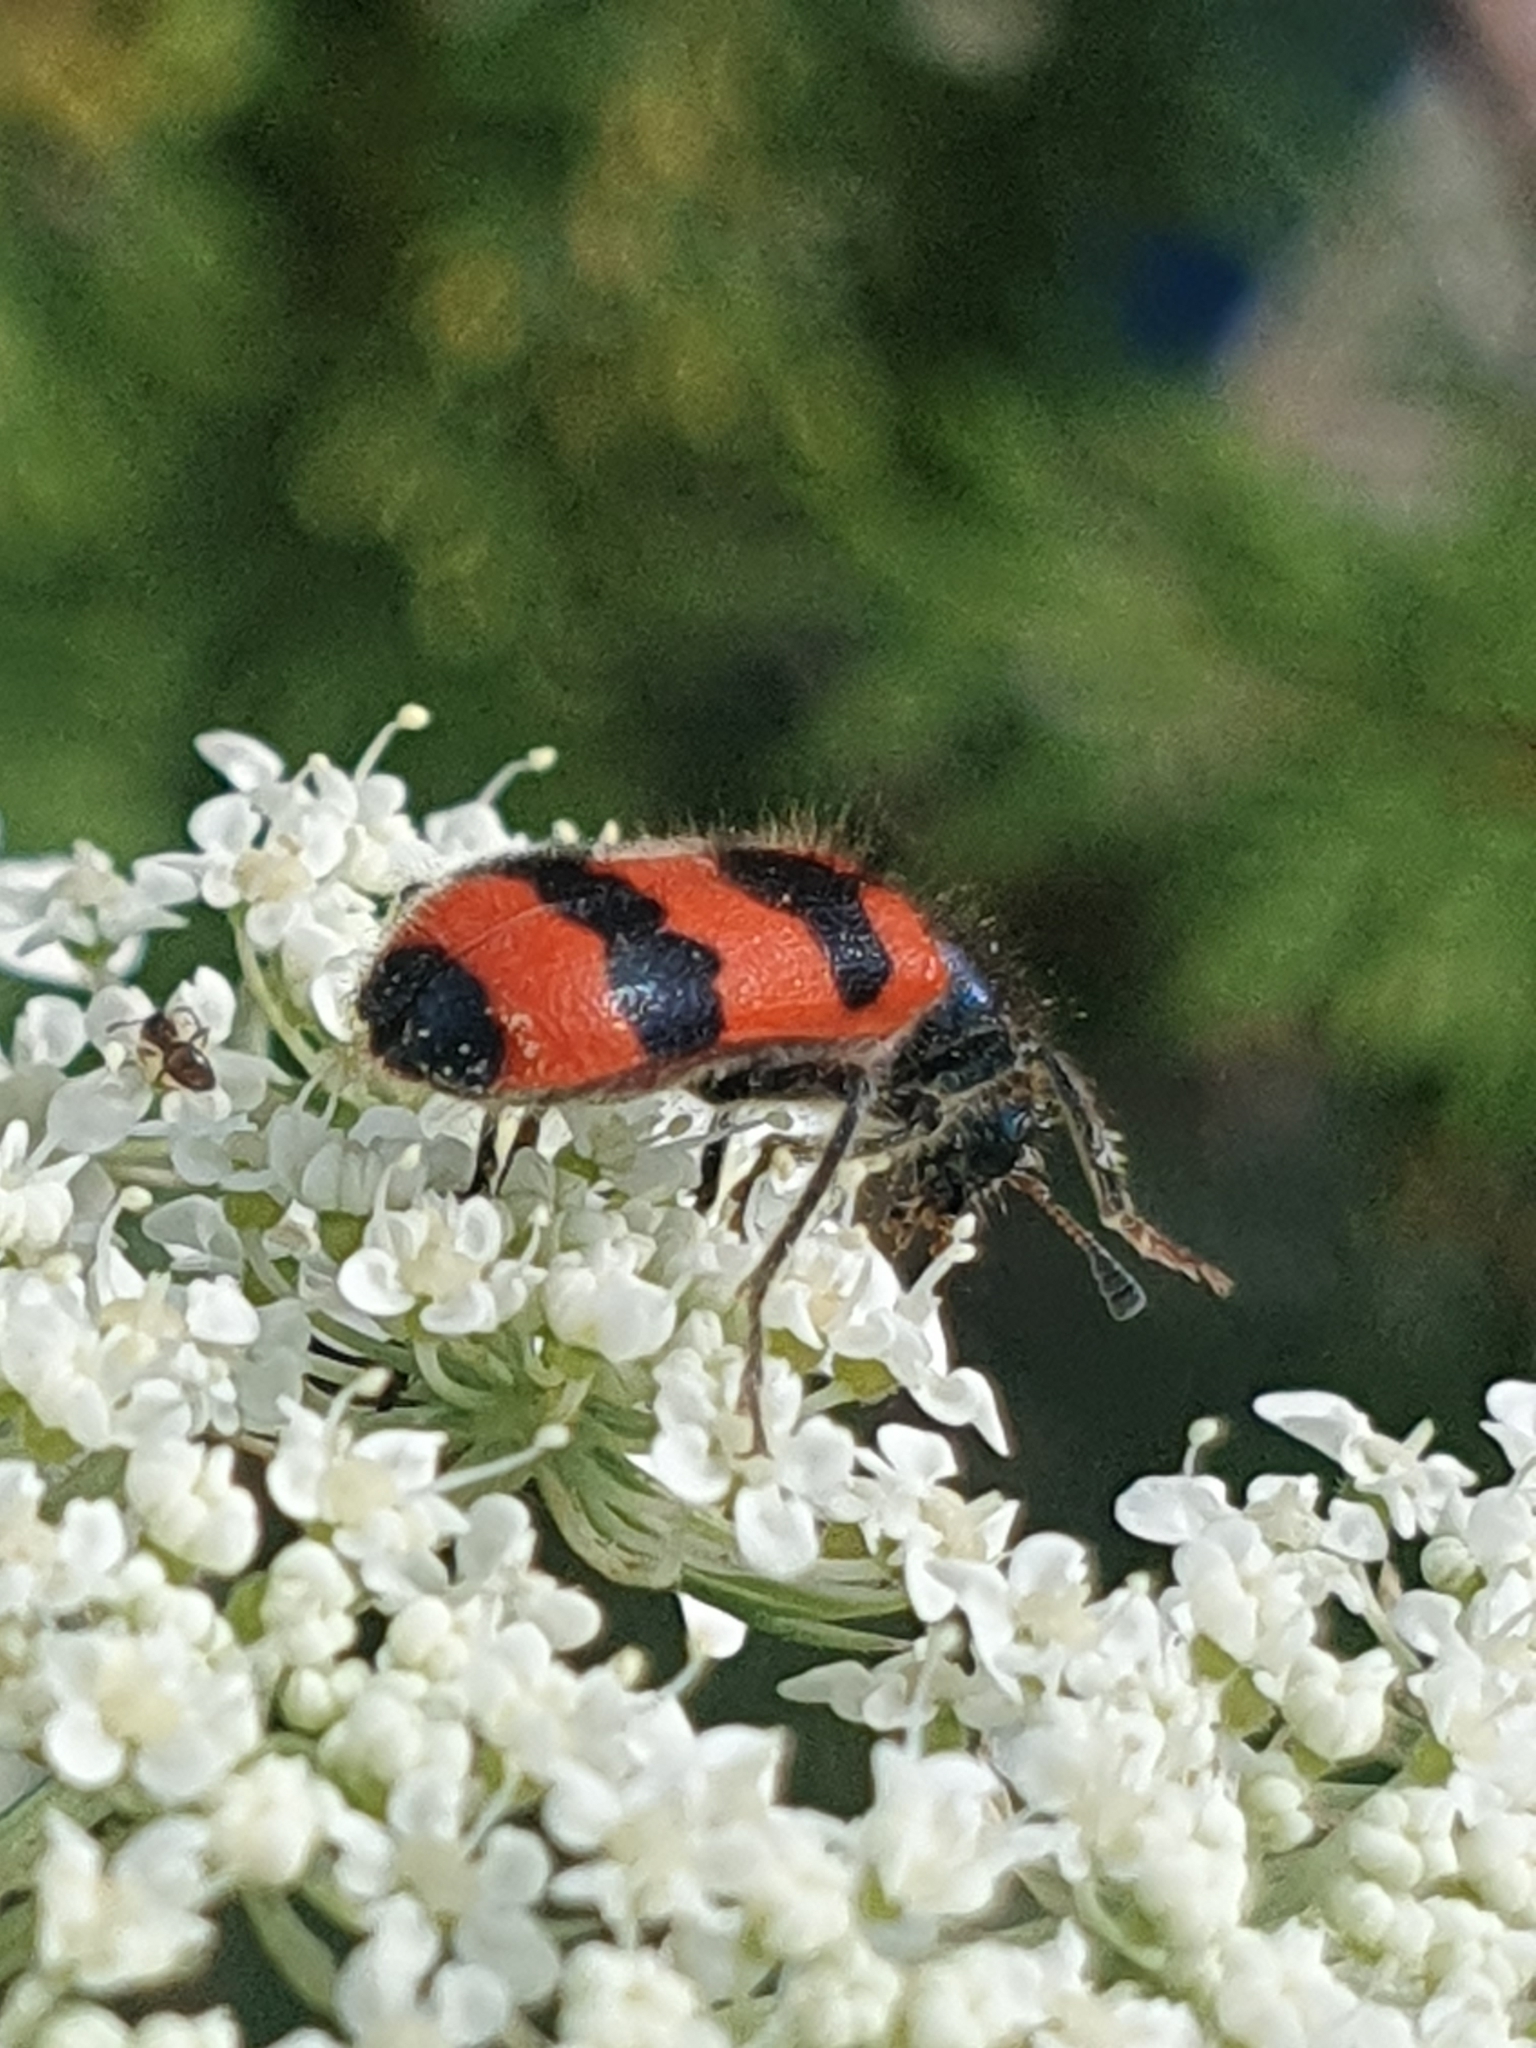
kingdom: Animalia
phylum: Arthropoda
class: Insecta
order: Coleoptera
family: Cleridae
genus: Trichodes
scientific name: Trichodes apiarius
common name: Bee-eating beetle
